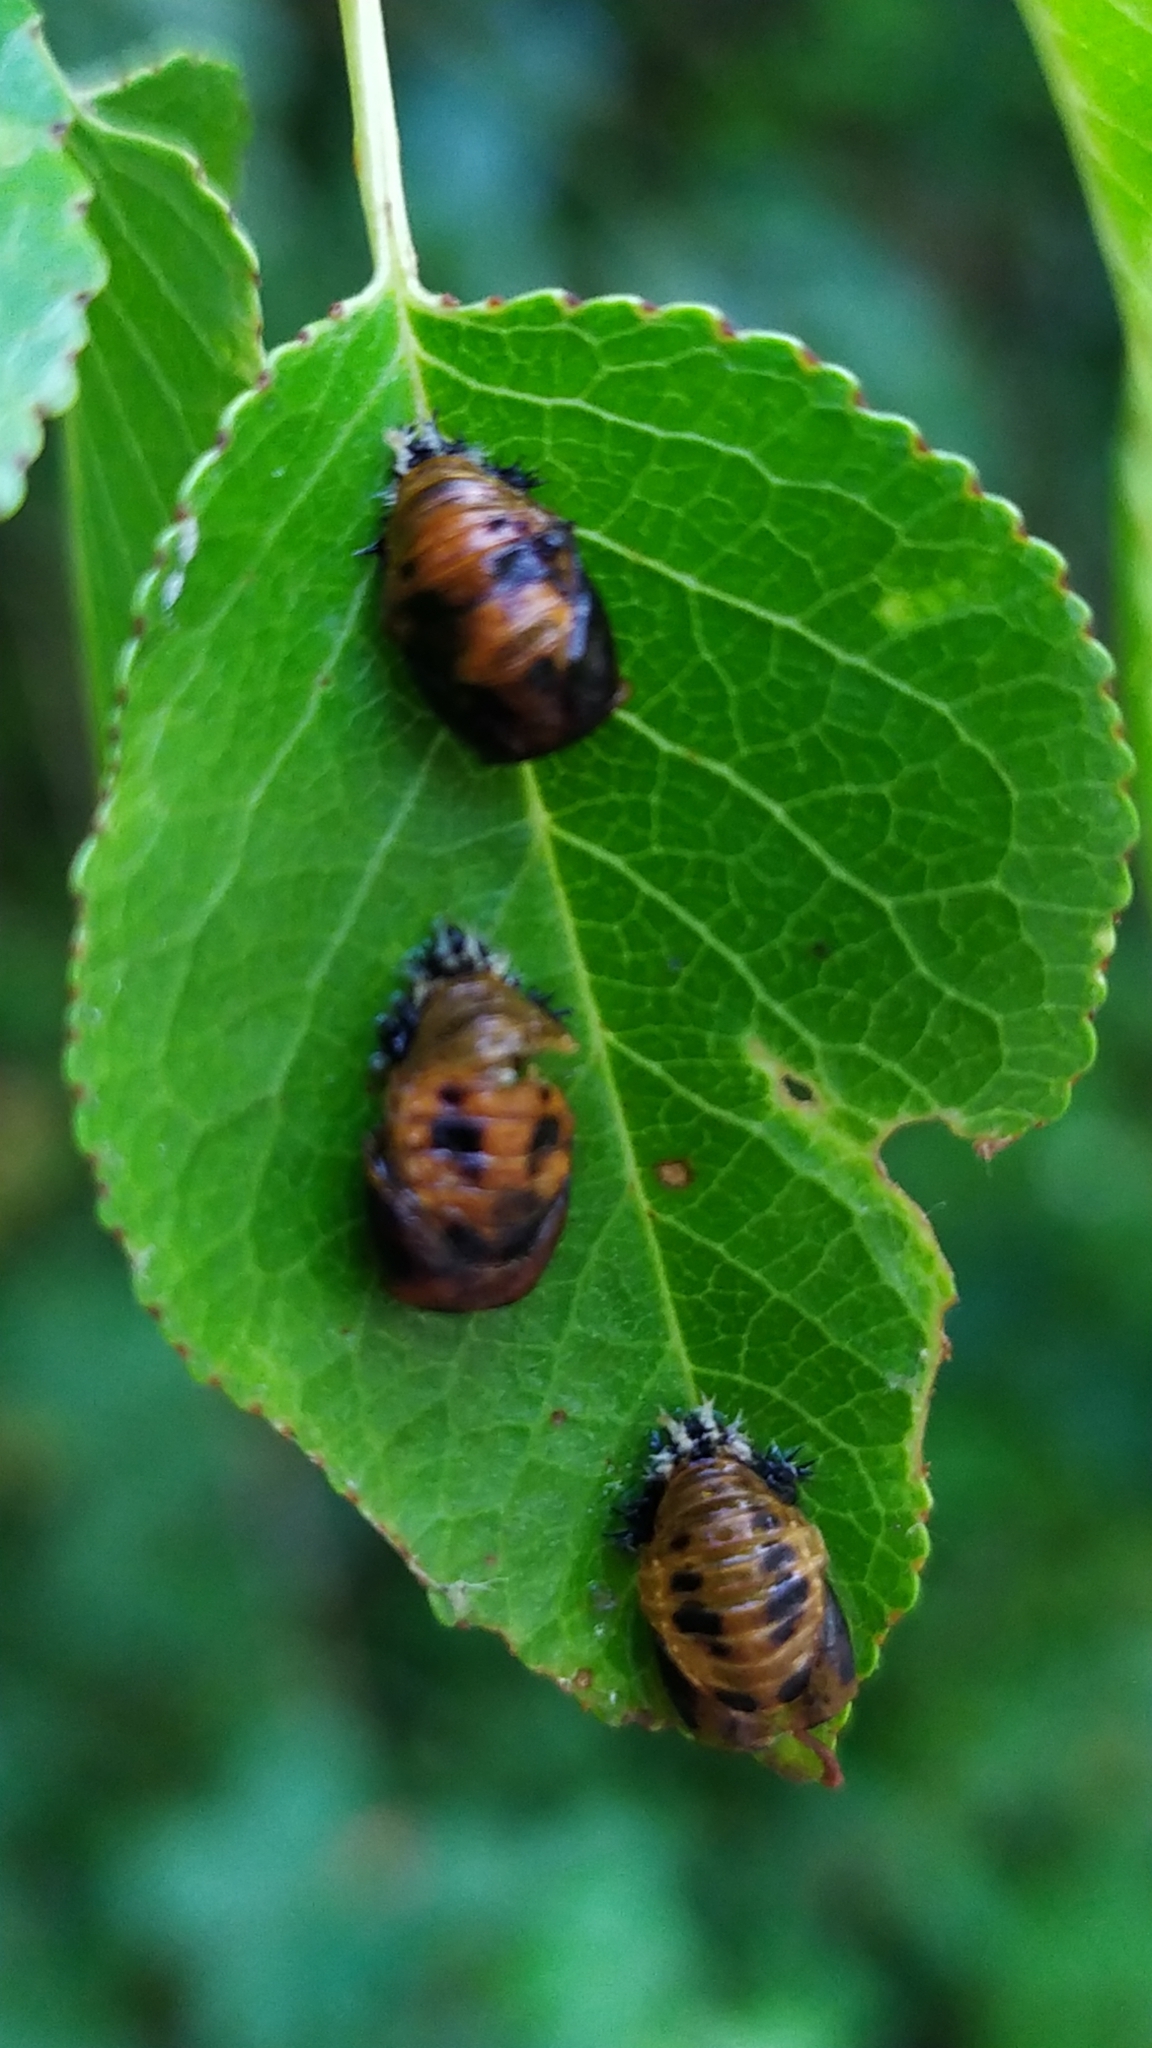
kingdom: Animalia
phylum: Arthropoda
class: Insecta
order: Coleoptera
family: Coccinellidae
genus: Harmonia
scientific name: Harmonia axyridis
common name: Harlequin ladybird
